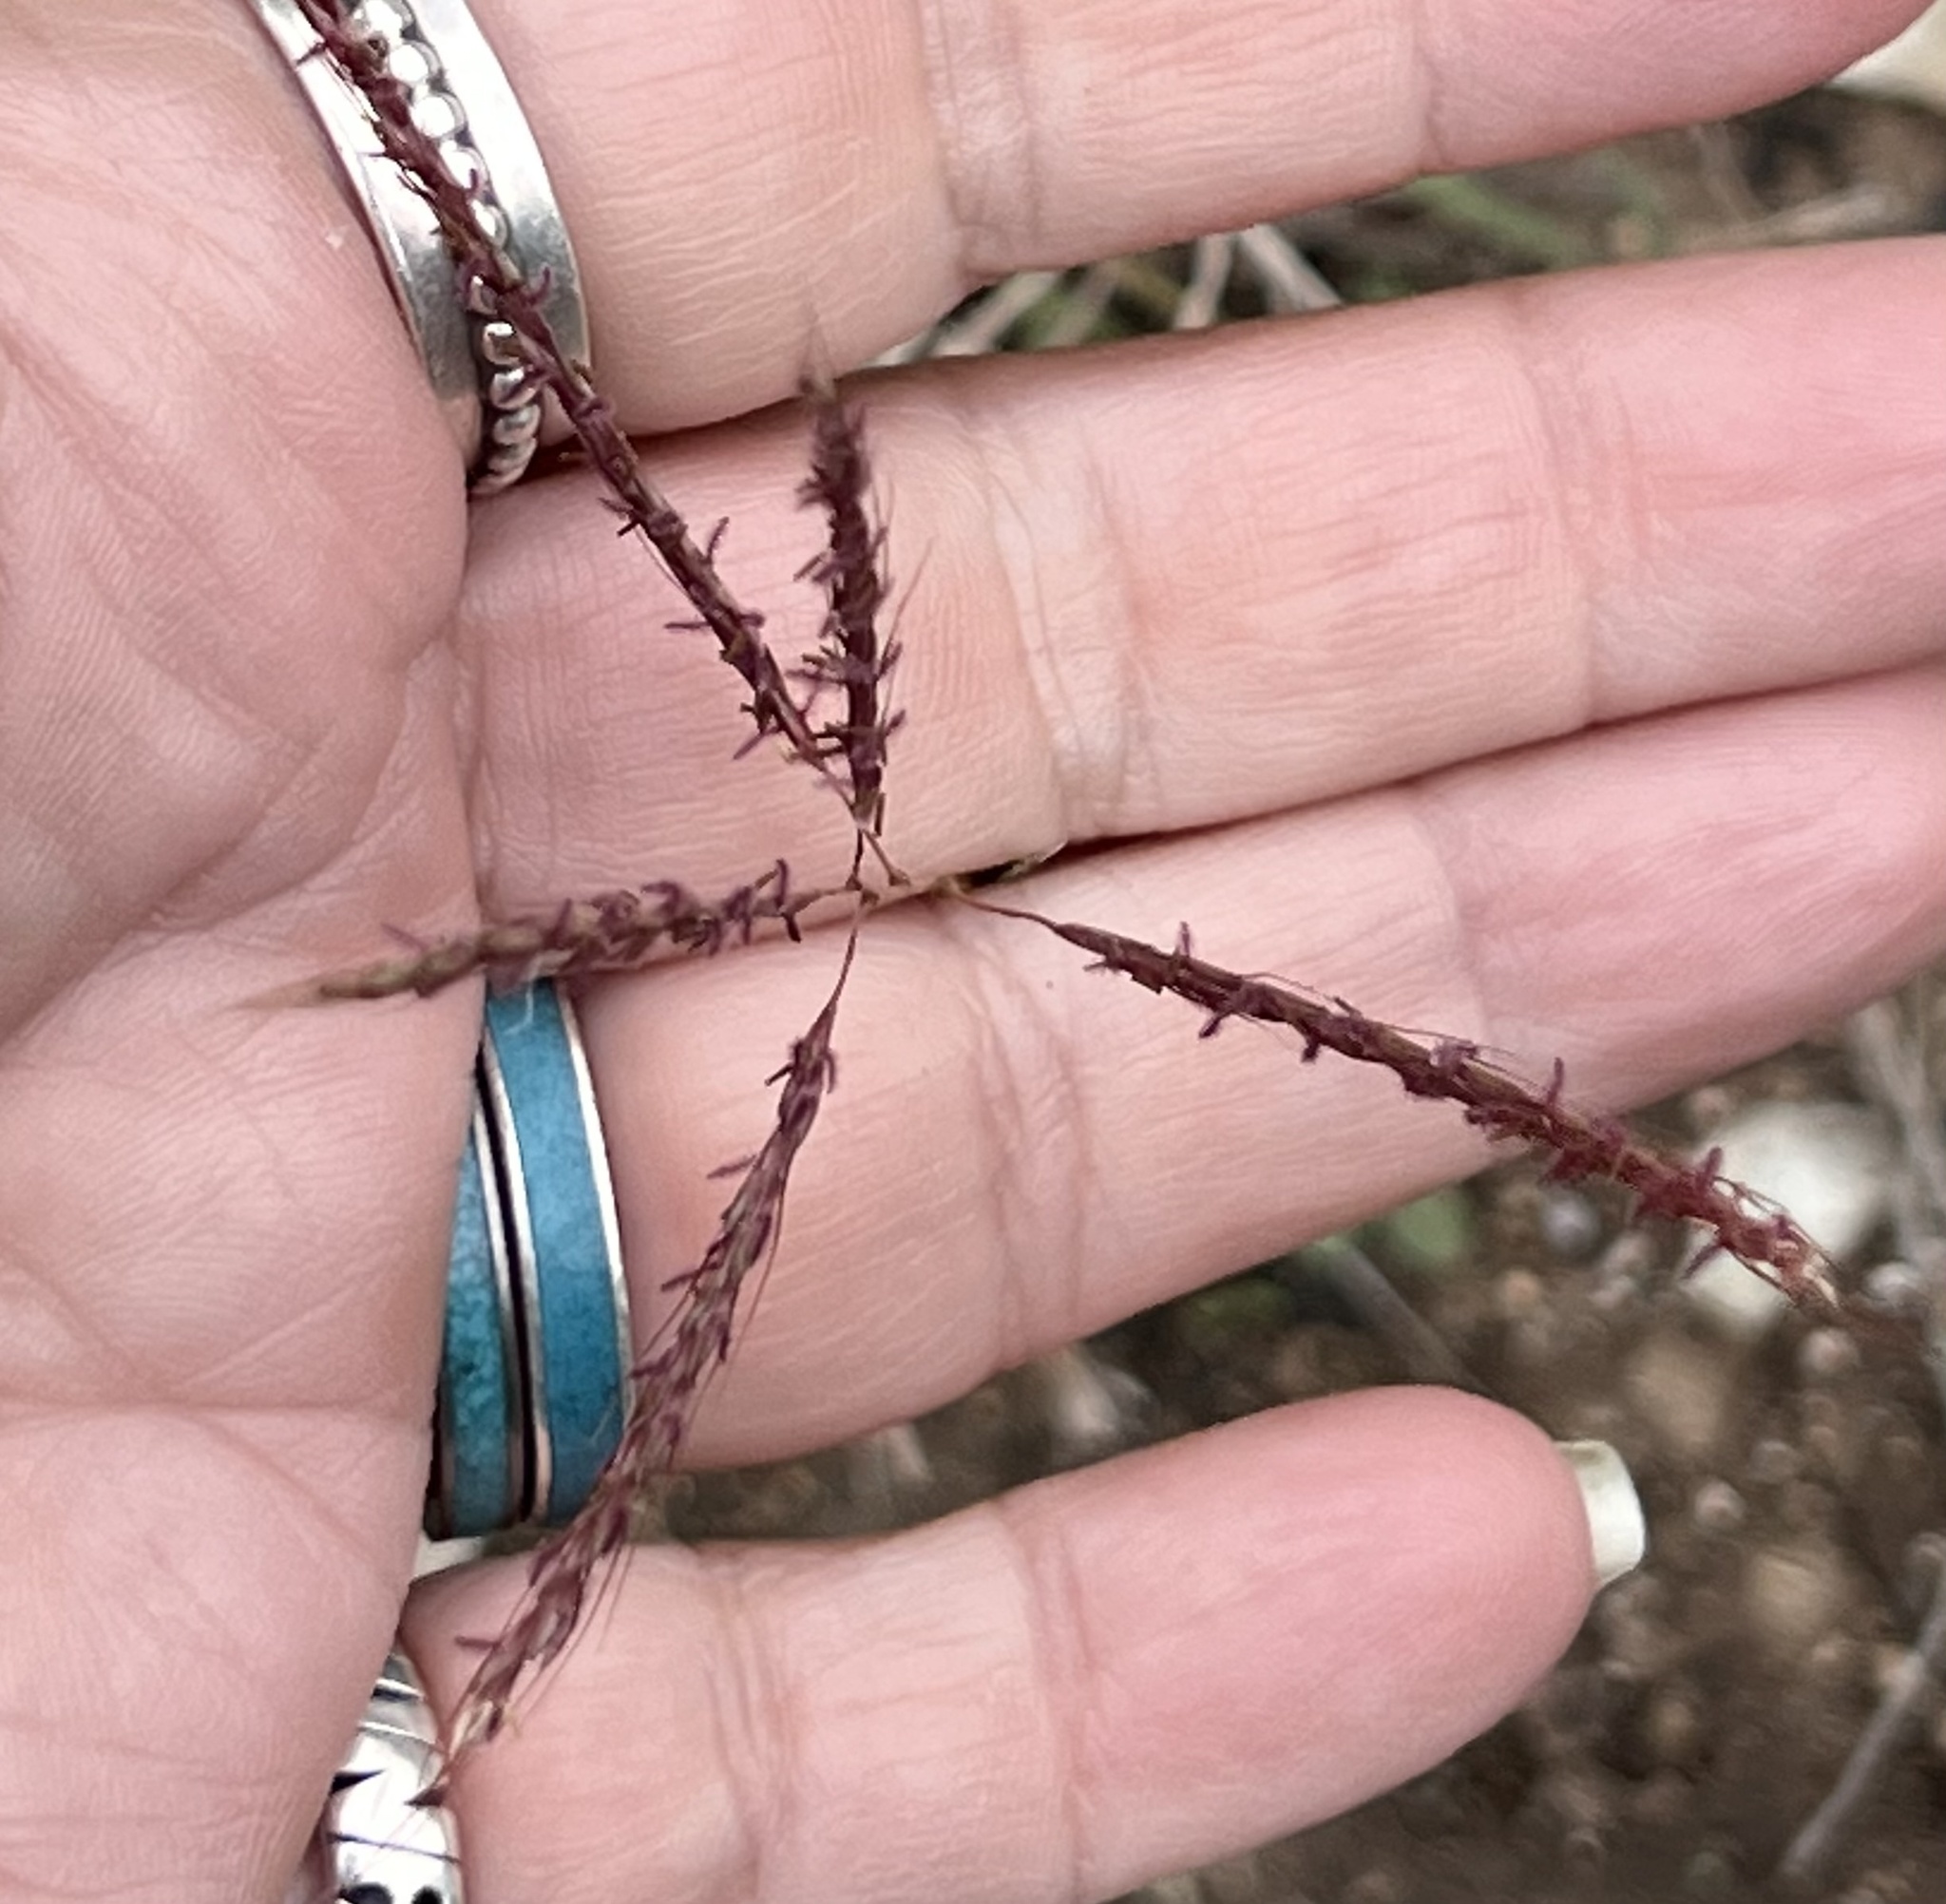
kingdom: Plantae
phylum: Tracheophyta
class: Liliopsida
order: Poales
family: Poaceae
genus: Bothriochloa
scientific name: Bothriochloa ischaemum
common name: Yellow bluestem
